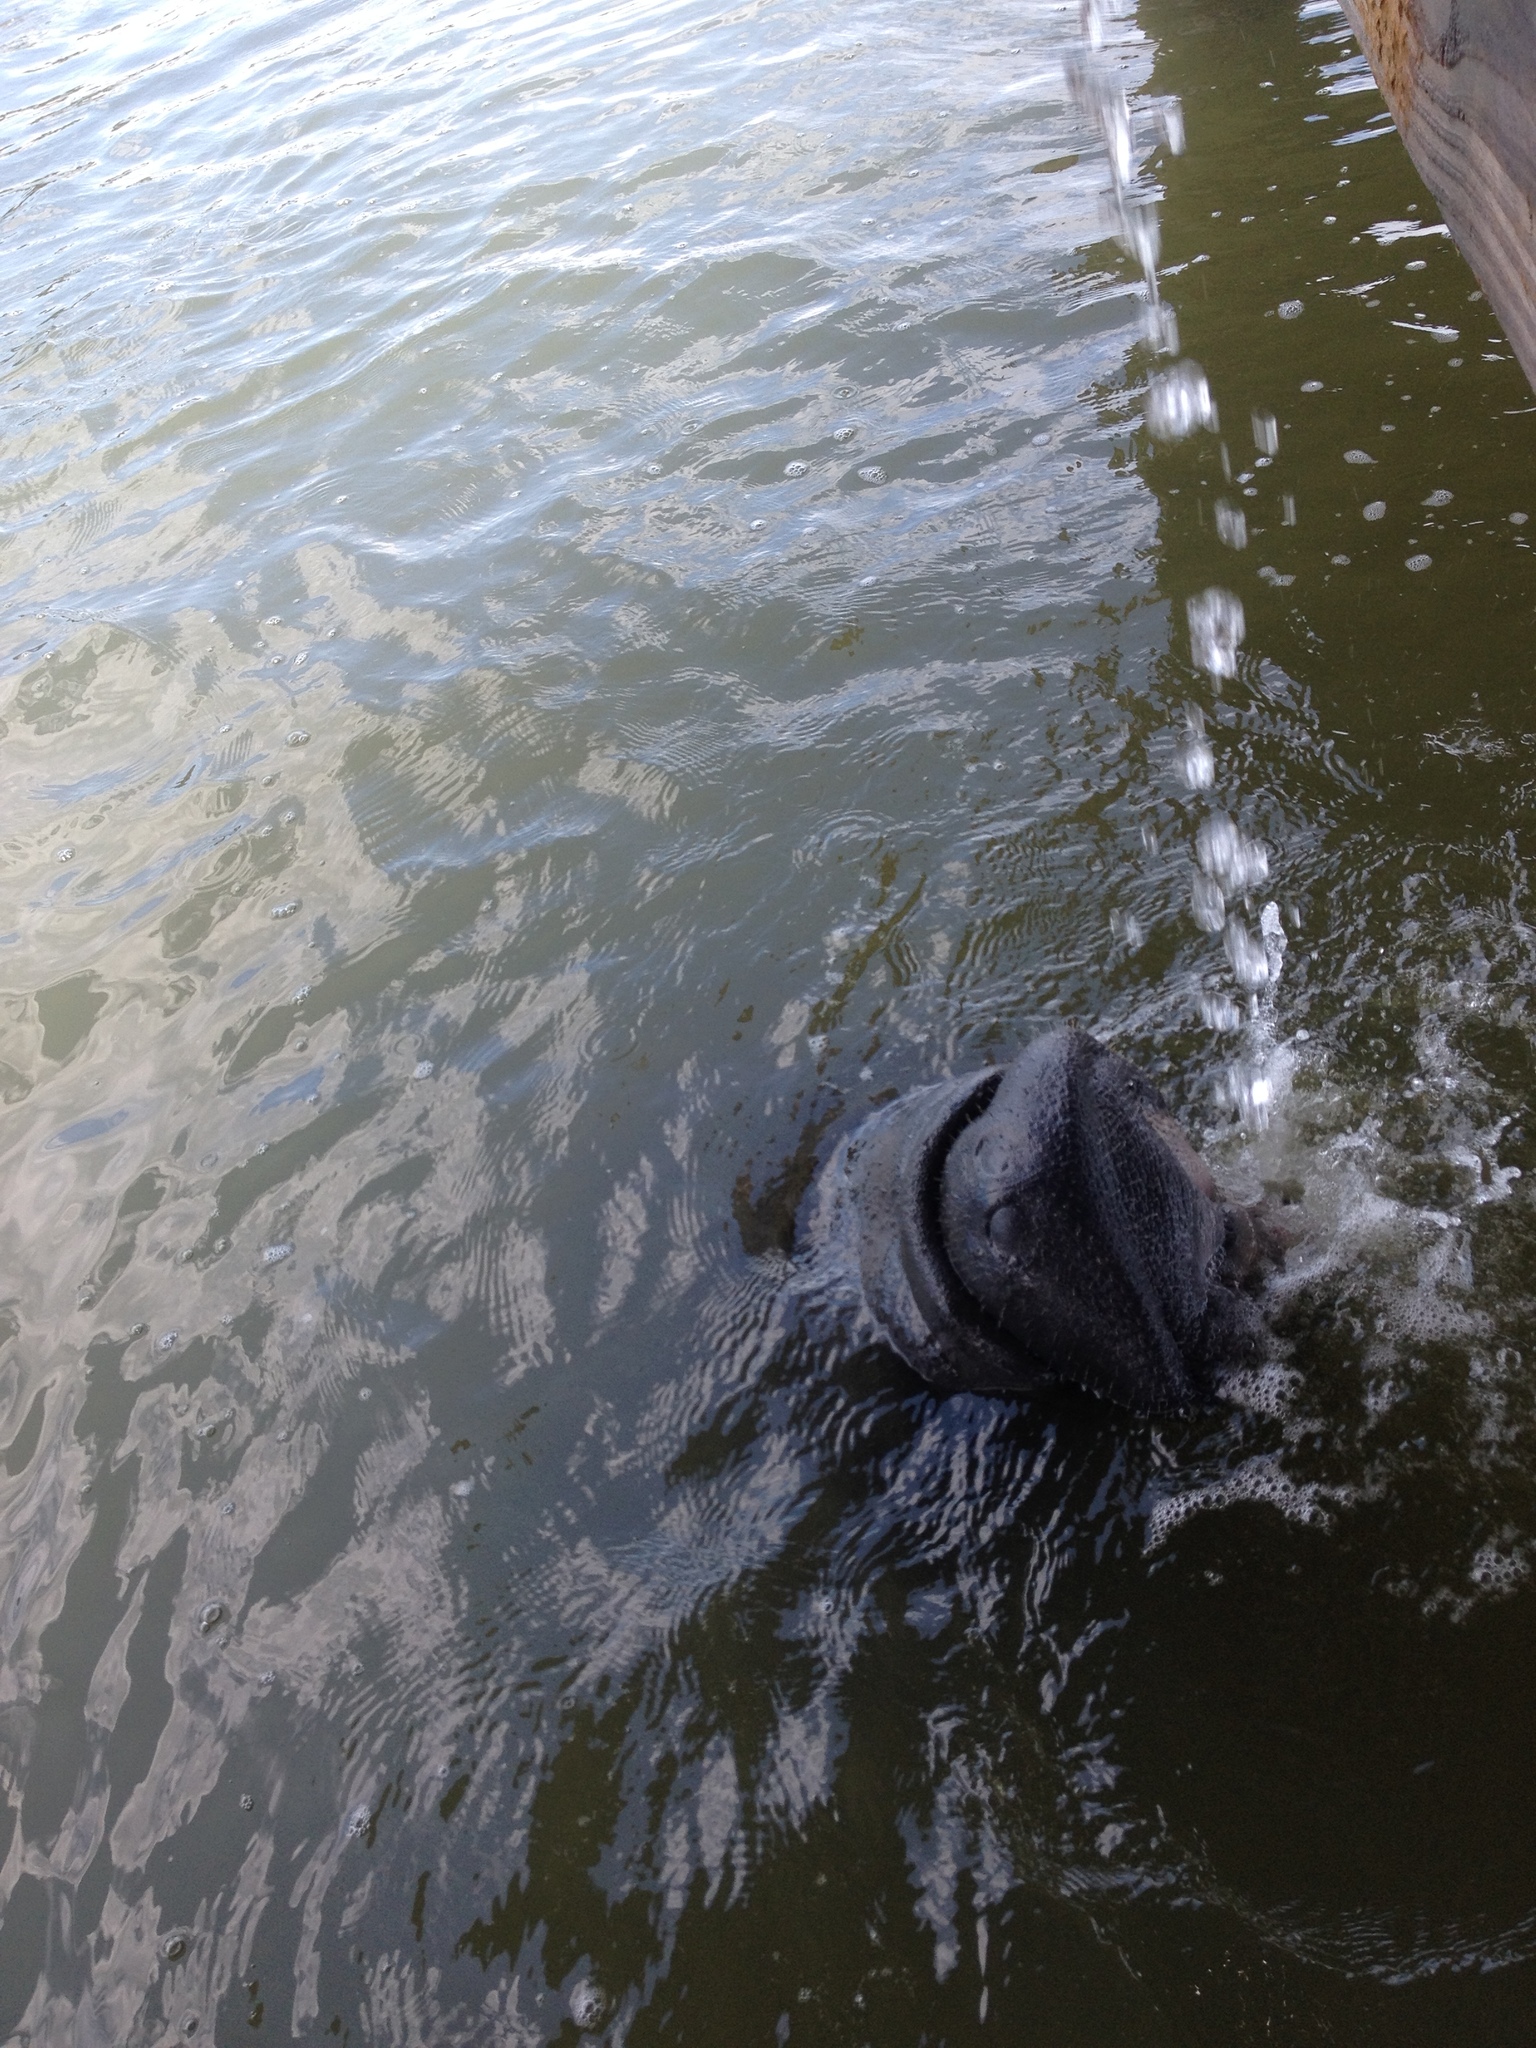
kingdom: Animalia
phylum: Chordata
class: Mammalia
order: Sirenia
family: Trichechidae
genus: Trichechus
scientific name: Trichechus manatus
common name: West indian manatee
